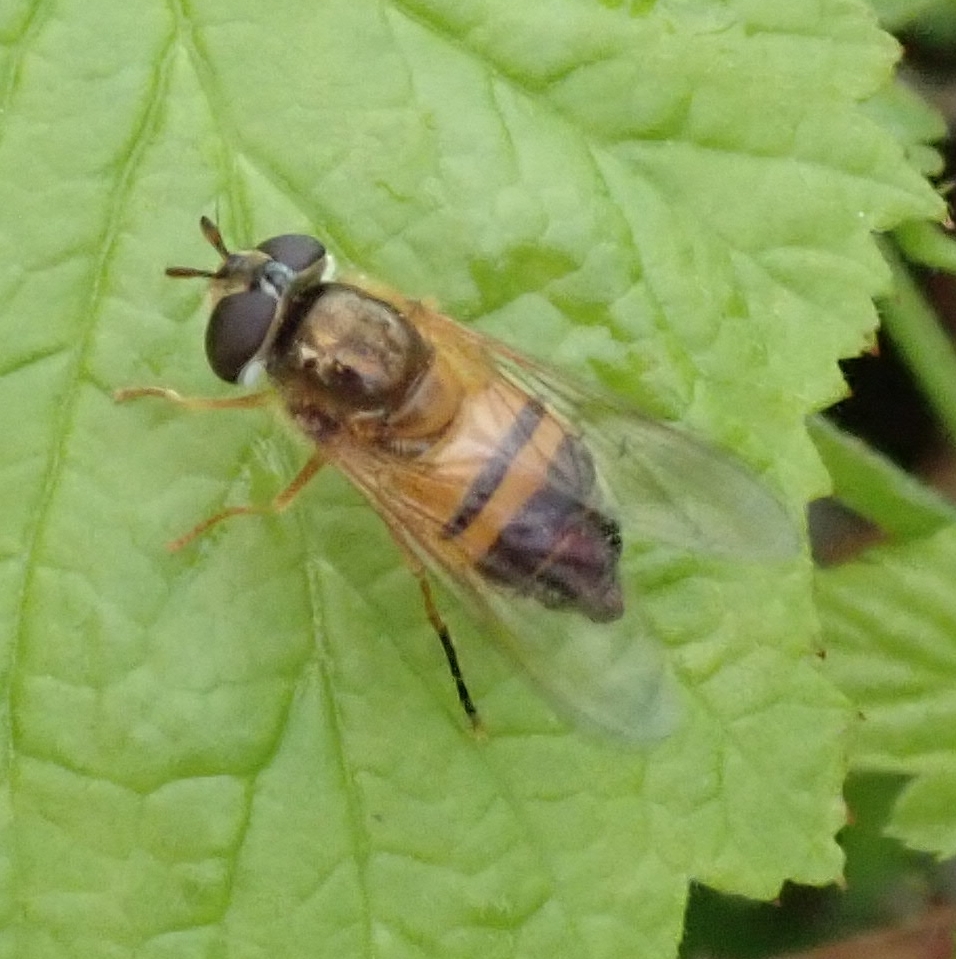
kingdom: Animalia
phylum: Arthropoda
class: Insecta
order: Diptera
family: Syrphidae
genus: Epistrophe
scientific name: Epistrophe eligans
